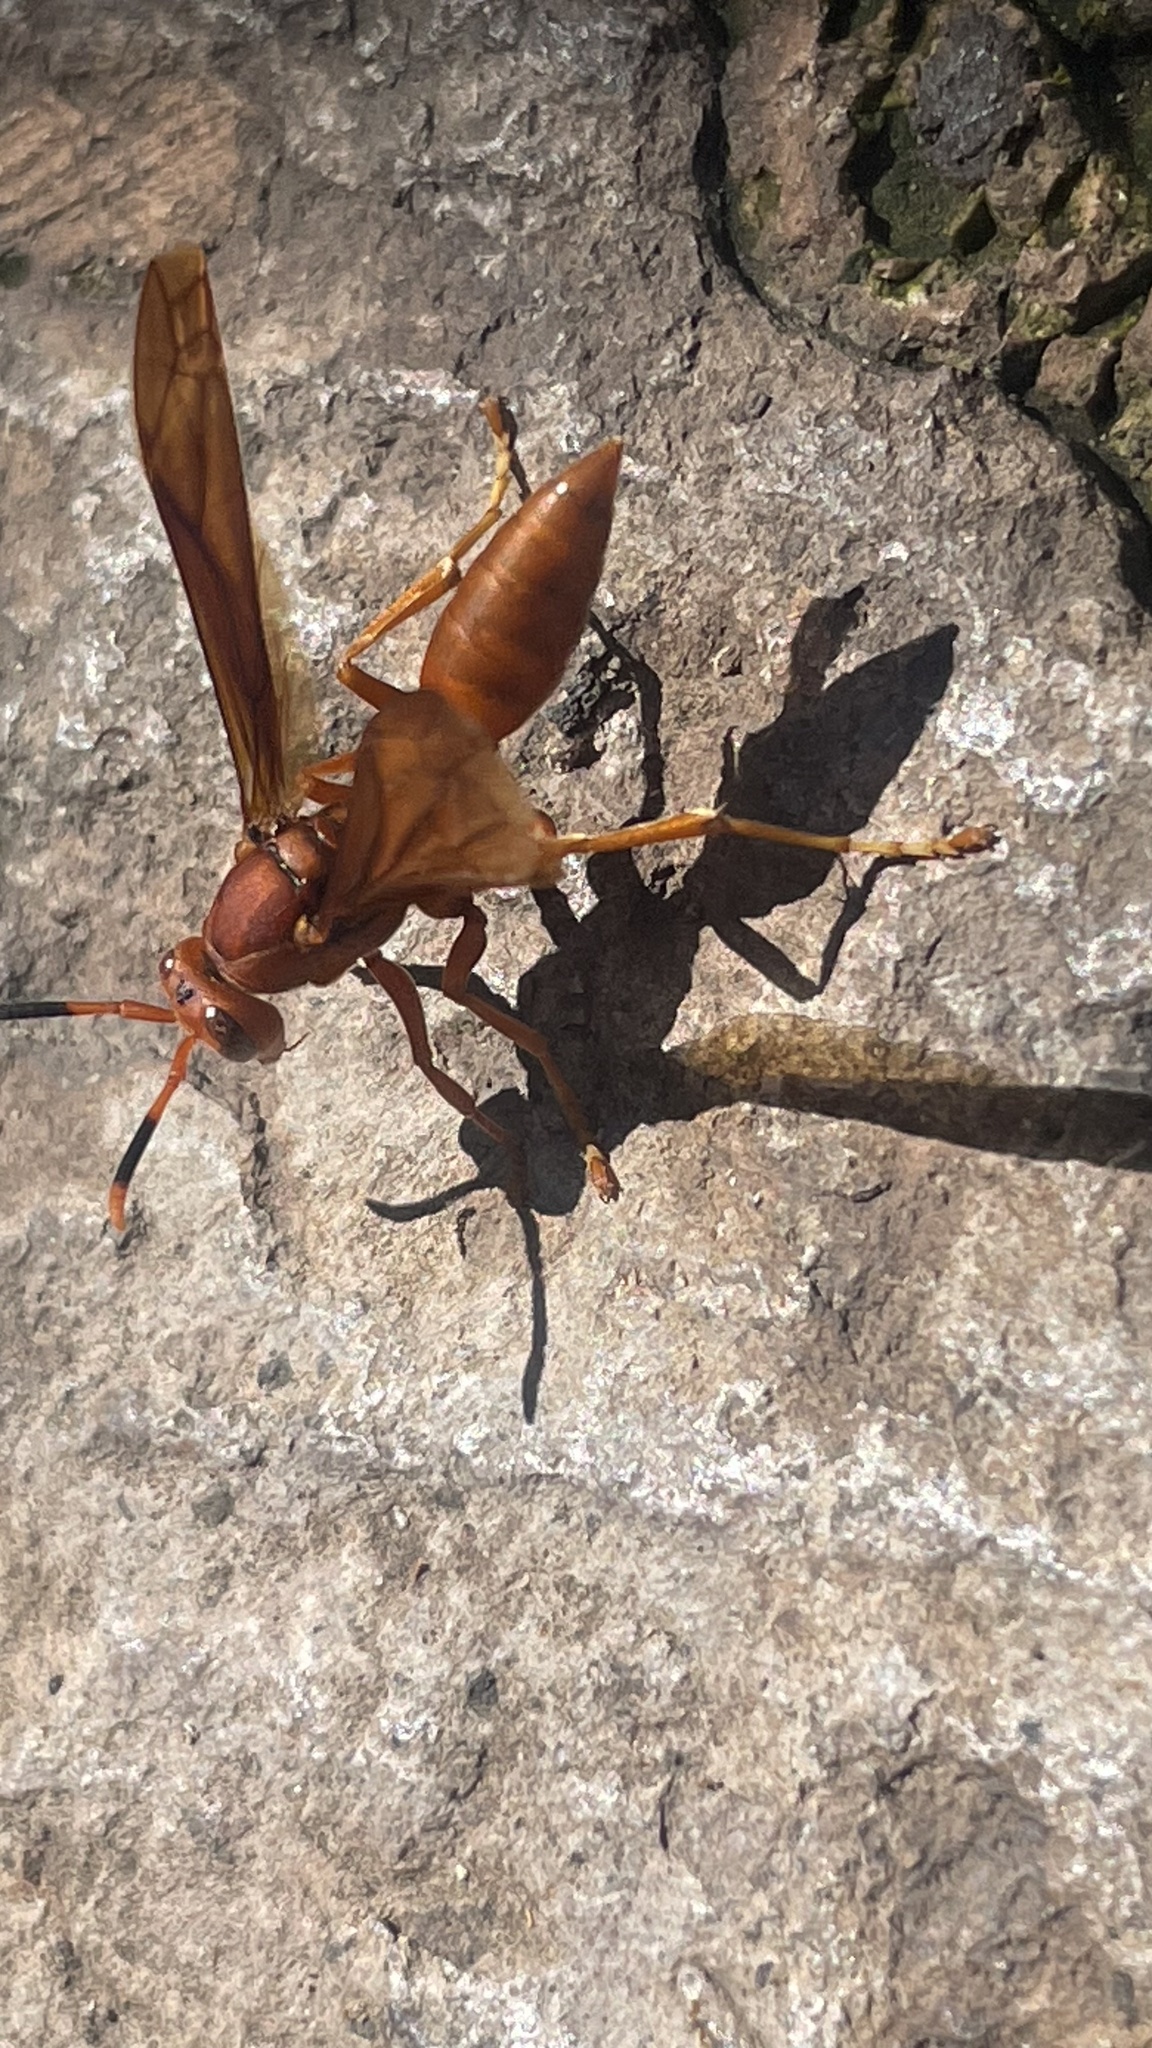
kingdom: Animalia
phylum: Arthropoda
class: Insecta
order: Hymenoptera
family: Eumenidae
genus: Polistes
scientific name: Polistes canadensis
